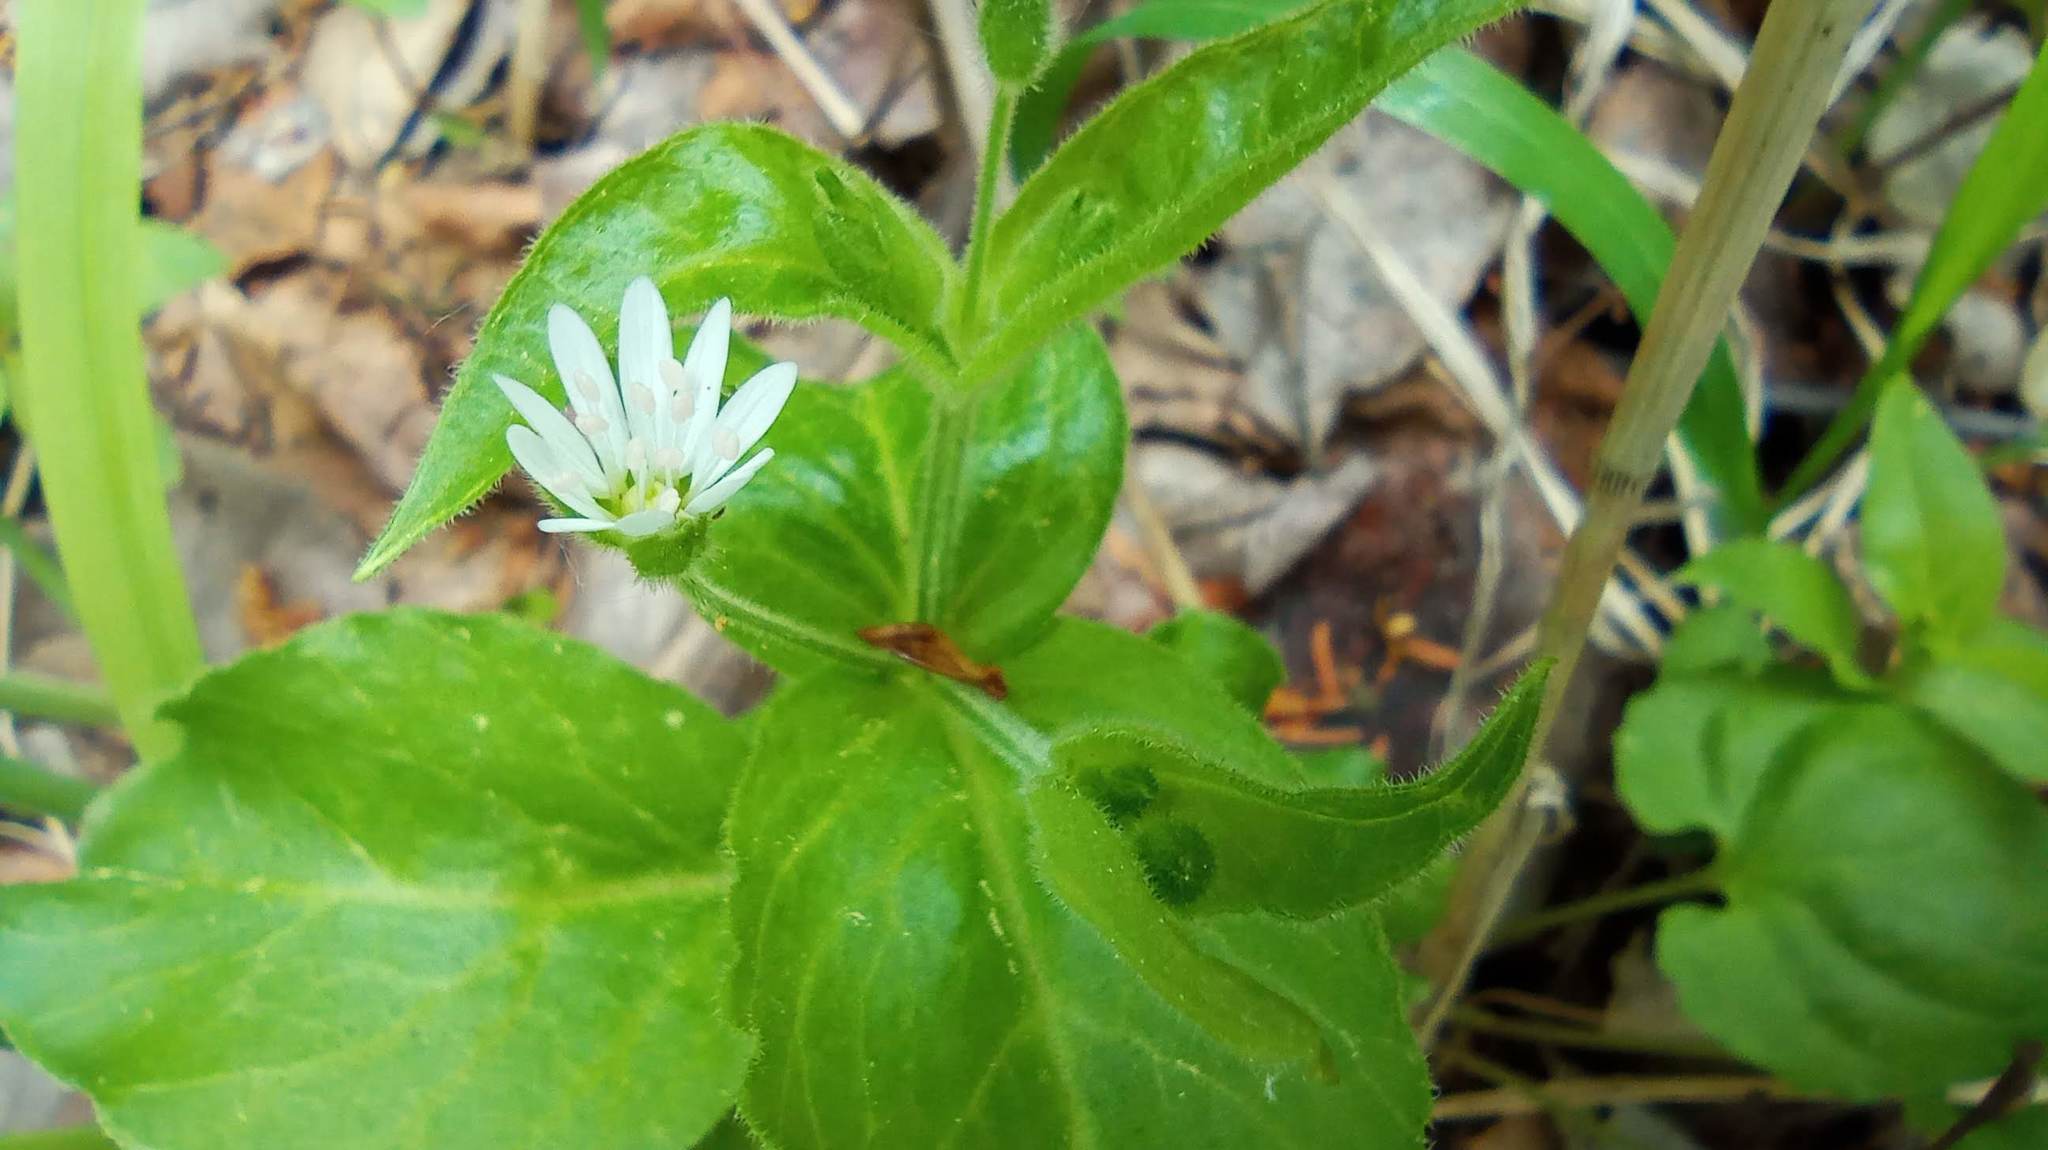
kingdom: Plantae
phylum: Tracheophyta
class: Magnoliopsida
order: Caryophyllales
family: Caryophyllaceae
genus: Stellaria
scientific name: Stellaria bungeana
